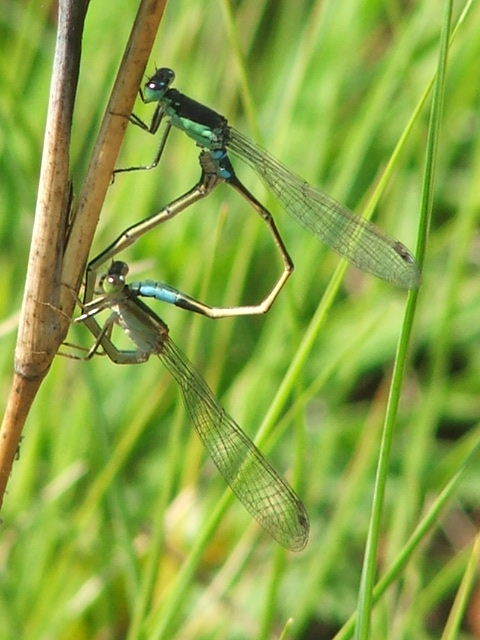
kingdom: Animalia
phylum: Arthropoda
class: Insecta
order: Odonata
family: Coenagrionidae
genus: Ischnura
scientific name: Ischnura senegalensis
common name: Tropical bluetail
